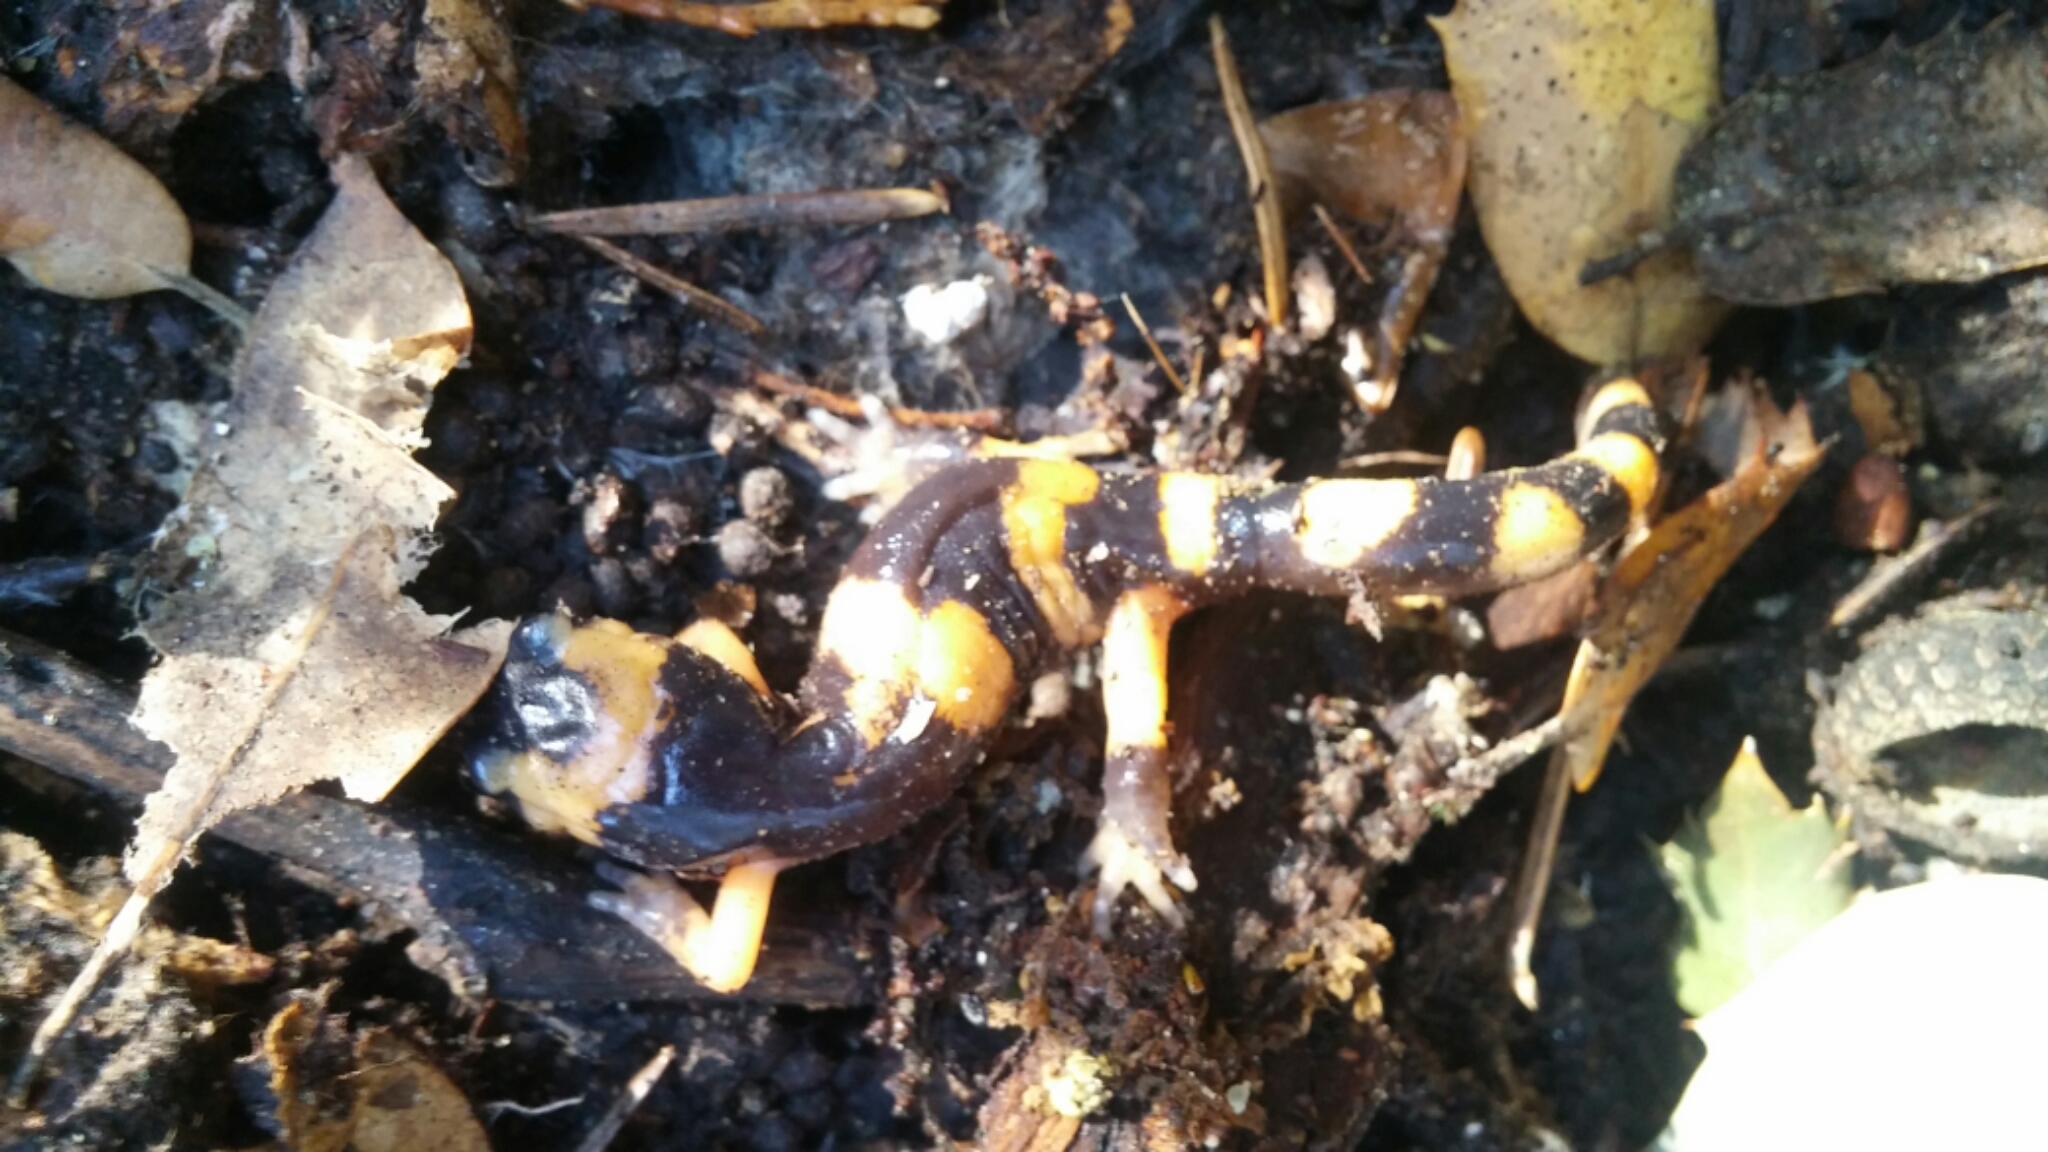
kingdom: Animalia
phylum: Chordata
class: Amphibia
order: Caudata
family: Plethodontidae
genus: Ensatina
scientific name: Ensatina eschscholtzii
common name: Ensatina
